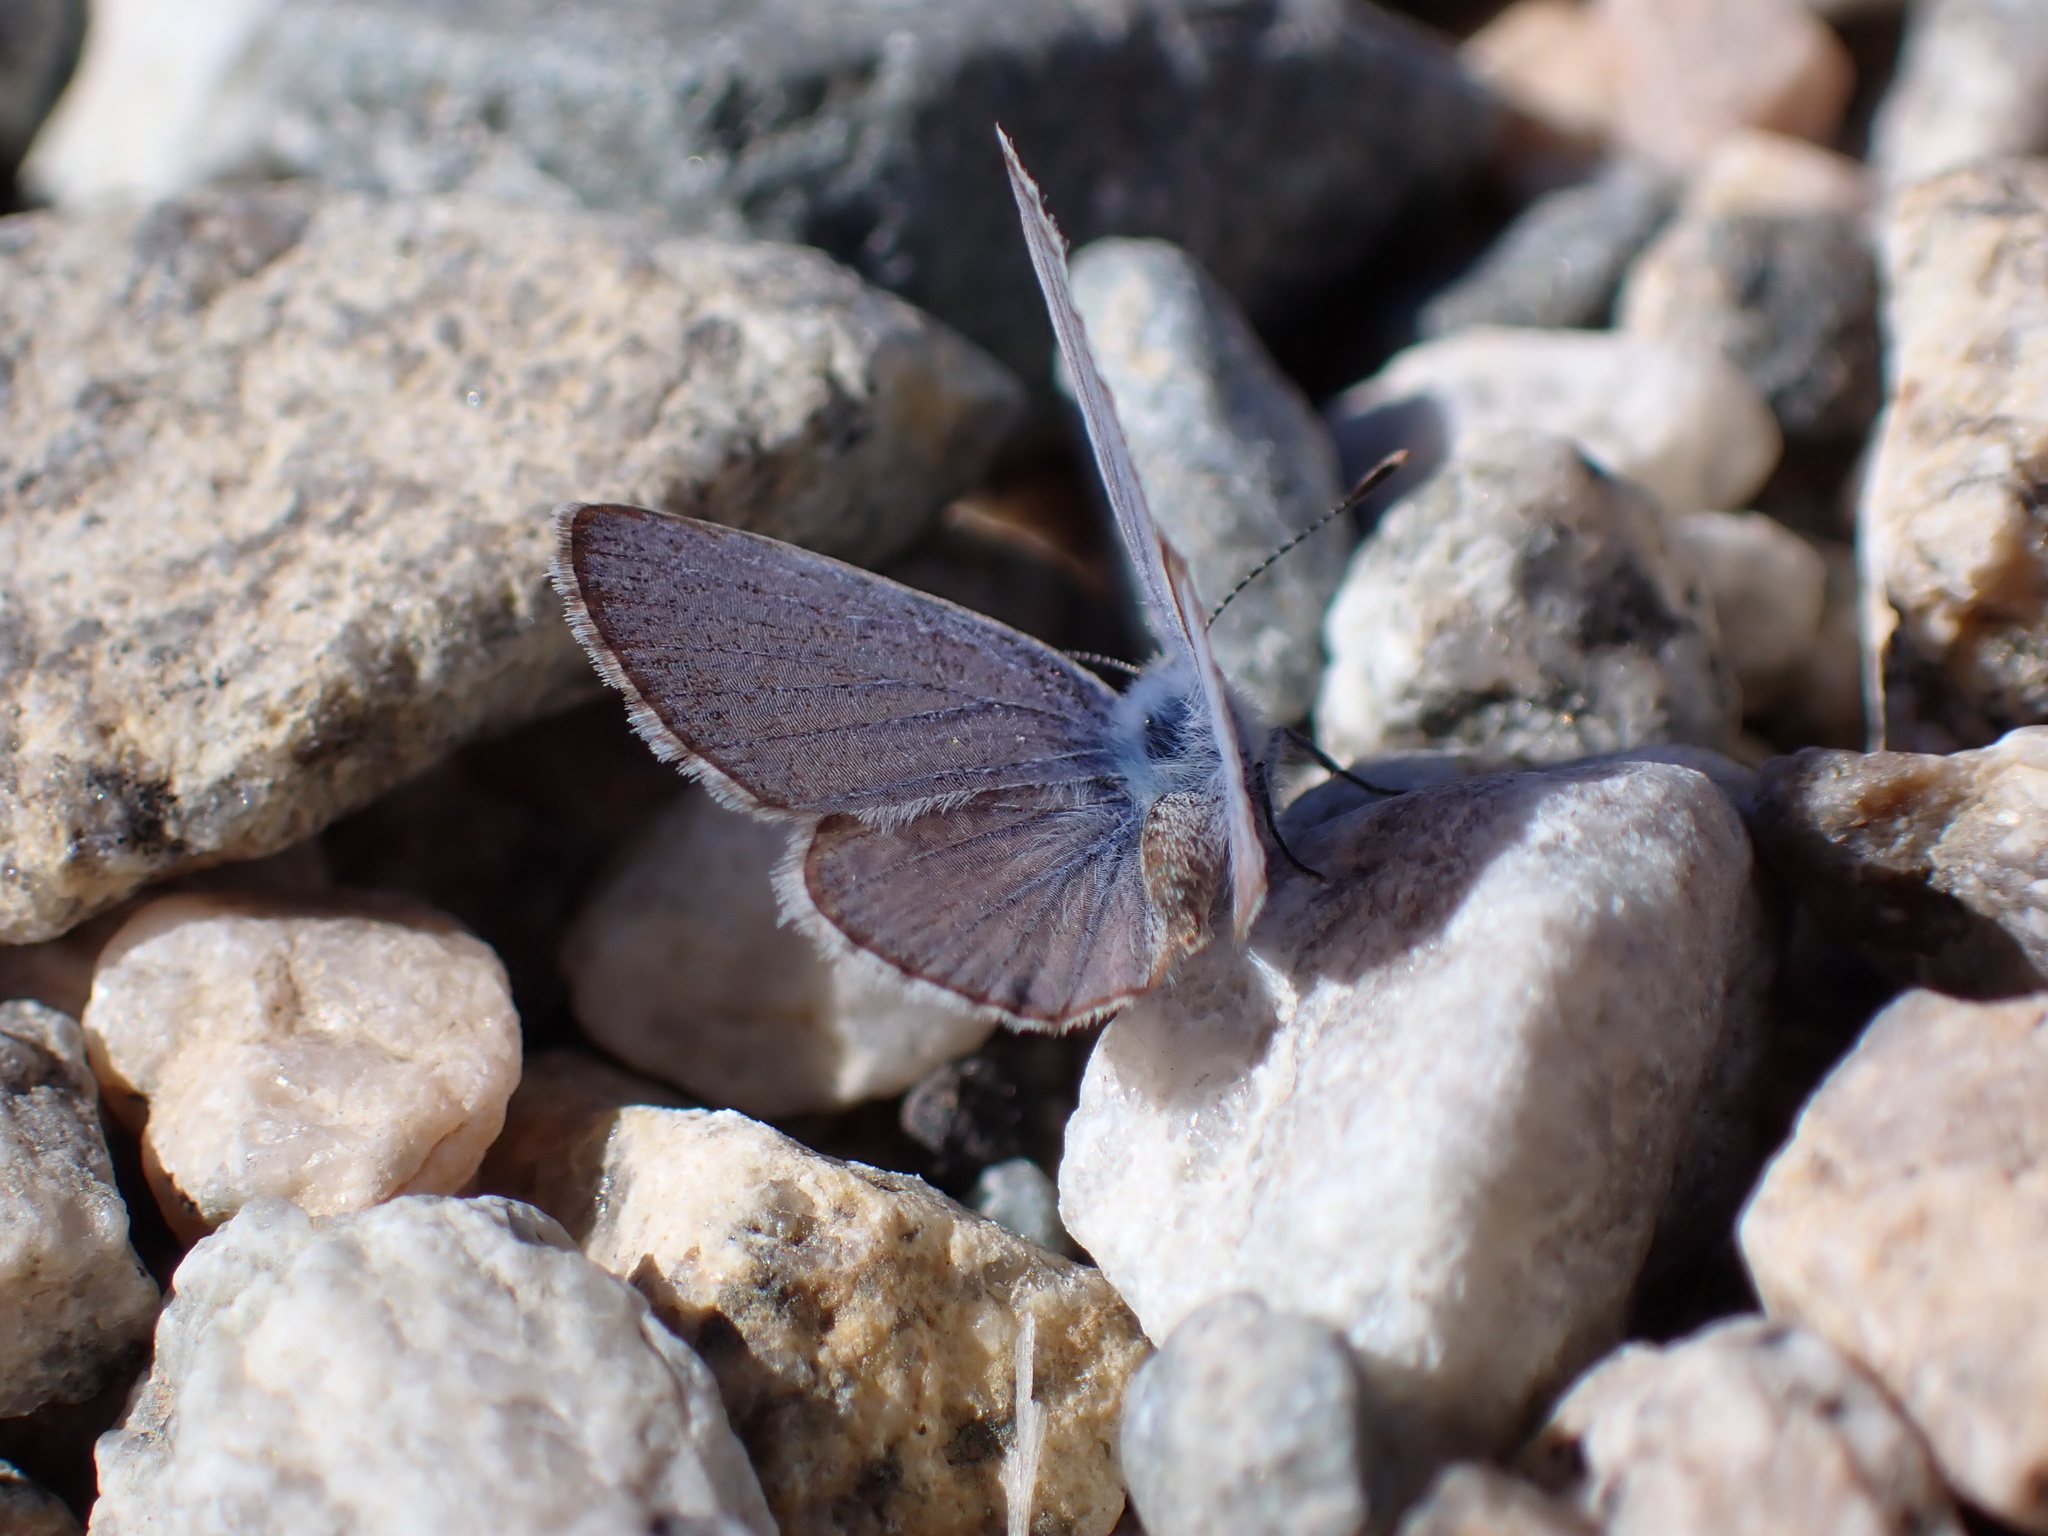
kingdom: Animalia
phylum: Arthropoda
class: Insecta
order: Lepidoptera
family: Lycaenidae
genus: Hemiargus
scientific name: Hemiargus ceraunus
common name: Ceraunus blue
